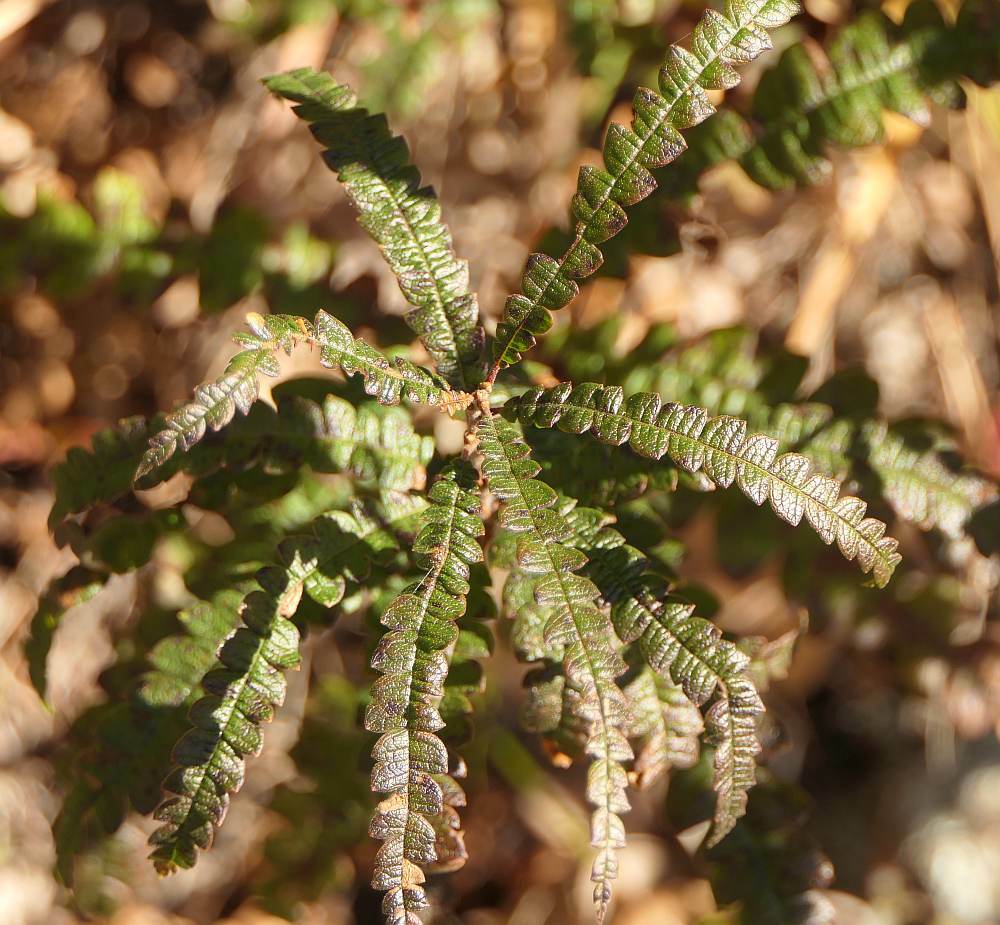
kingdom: Plantae
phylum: Tracheophyta
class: Magnoliopsida
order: Fagales
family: Myricaceae
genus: Comptonia
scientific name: Comptonia peregrina
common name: Sweet-fern
